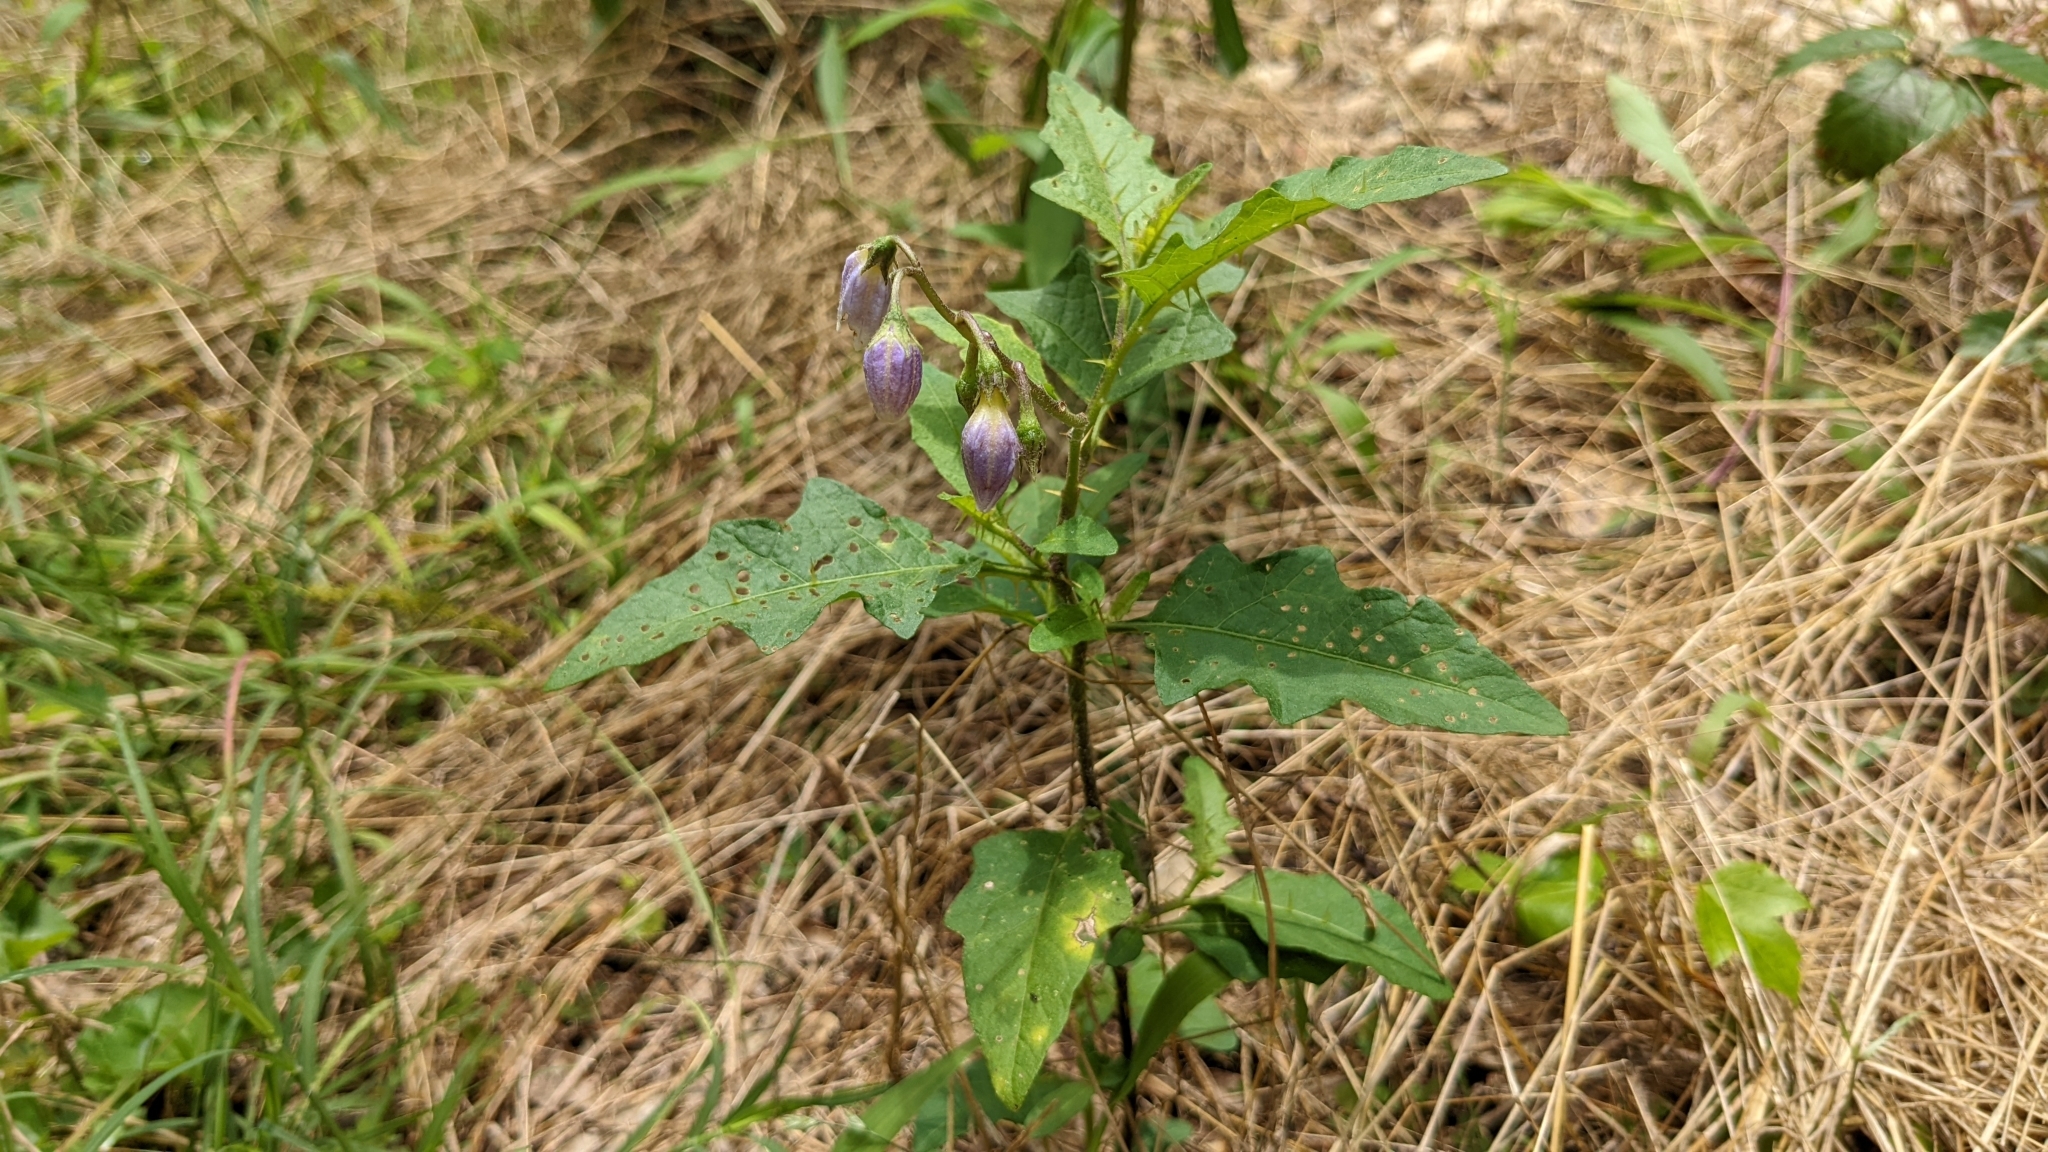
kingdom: Plantae
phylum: Tracheophyta
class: Magnoliopsida
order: Solanales
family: Solanaceae
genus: Solanum
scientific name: Solanum carolinense
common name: Horse-nettle
